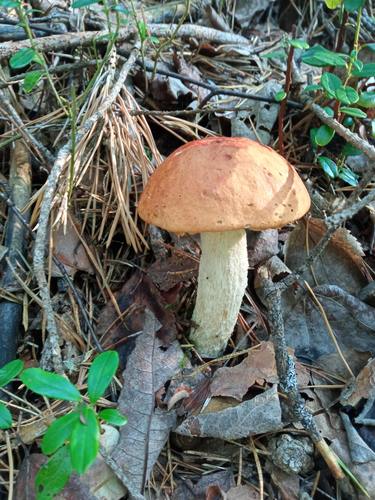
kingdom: Fungi
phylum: Basidiomycota
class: Agaricomycetes
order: Boletales
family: Boletaceae
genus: Leccinum
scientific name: Leccinum albostipitatum
